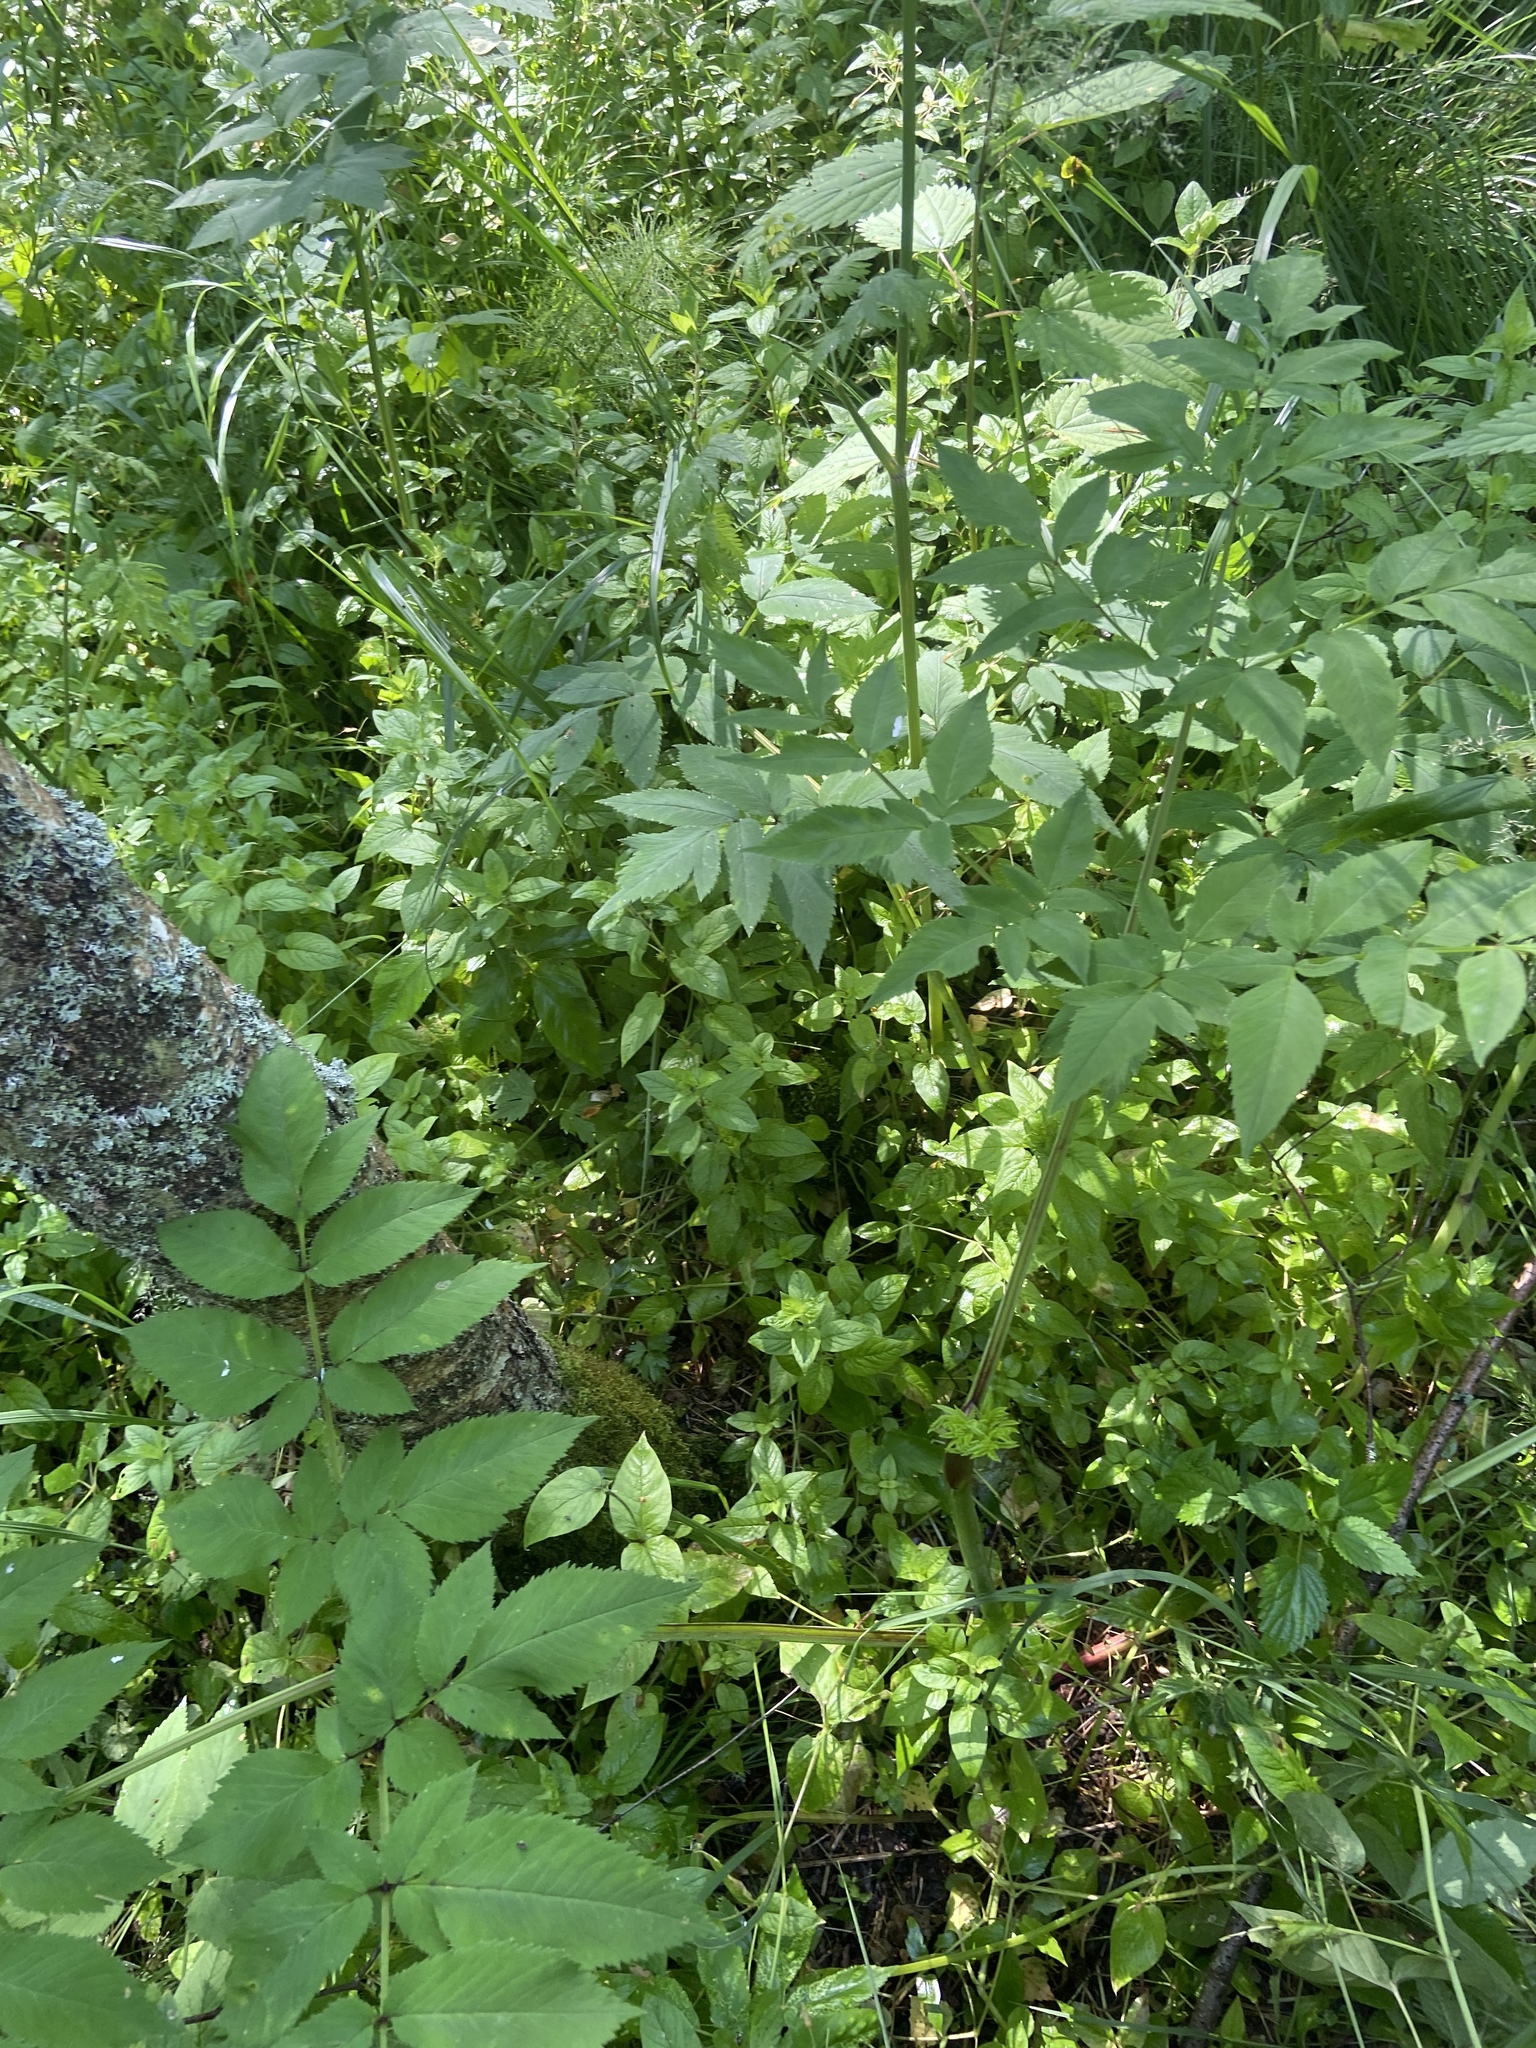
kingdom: Plantae
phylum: Tracheophyta
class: Magnoliopsida
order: Apiales
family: Apiaceae
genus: Angelica
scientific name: Angelica sylvestris
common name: Wild angelica
